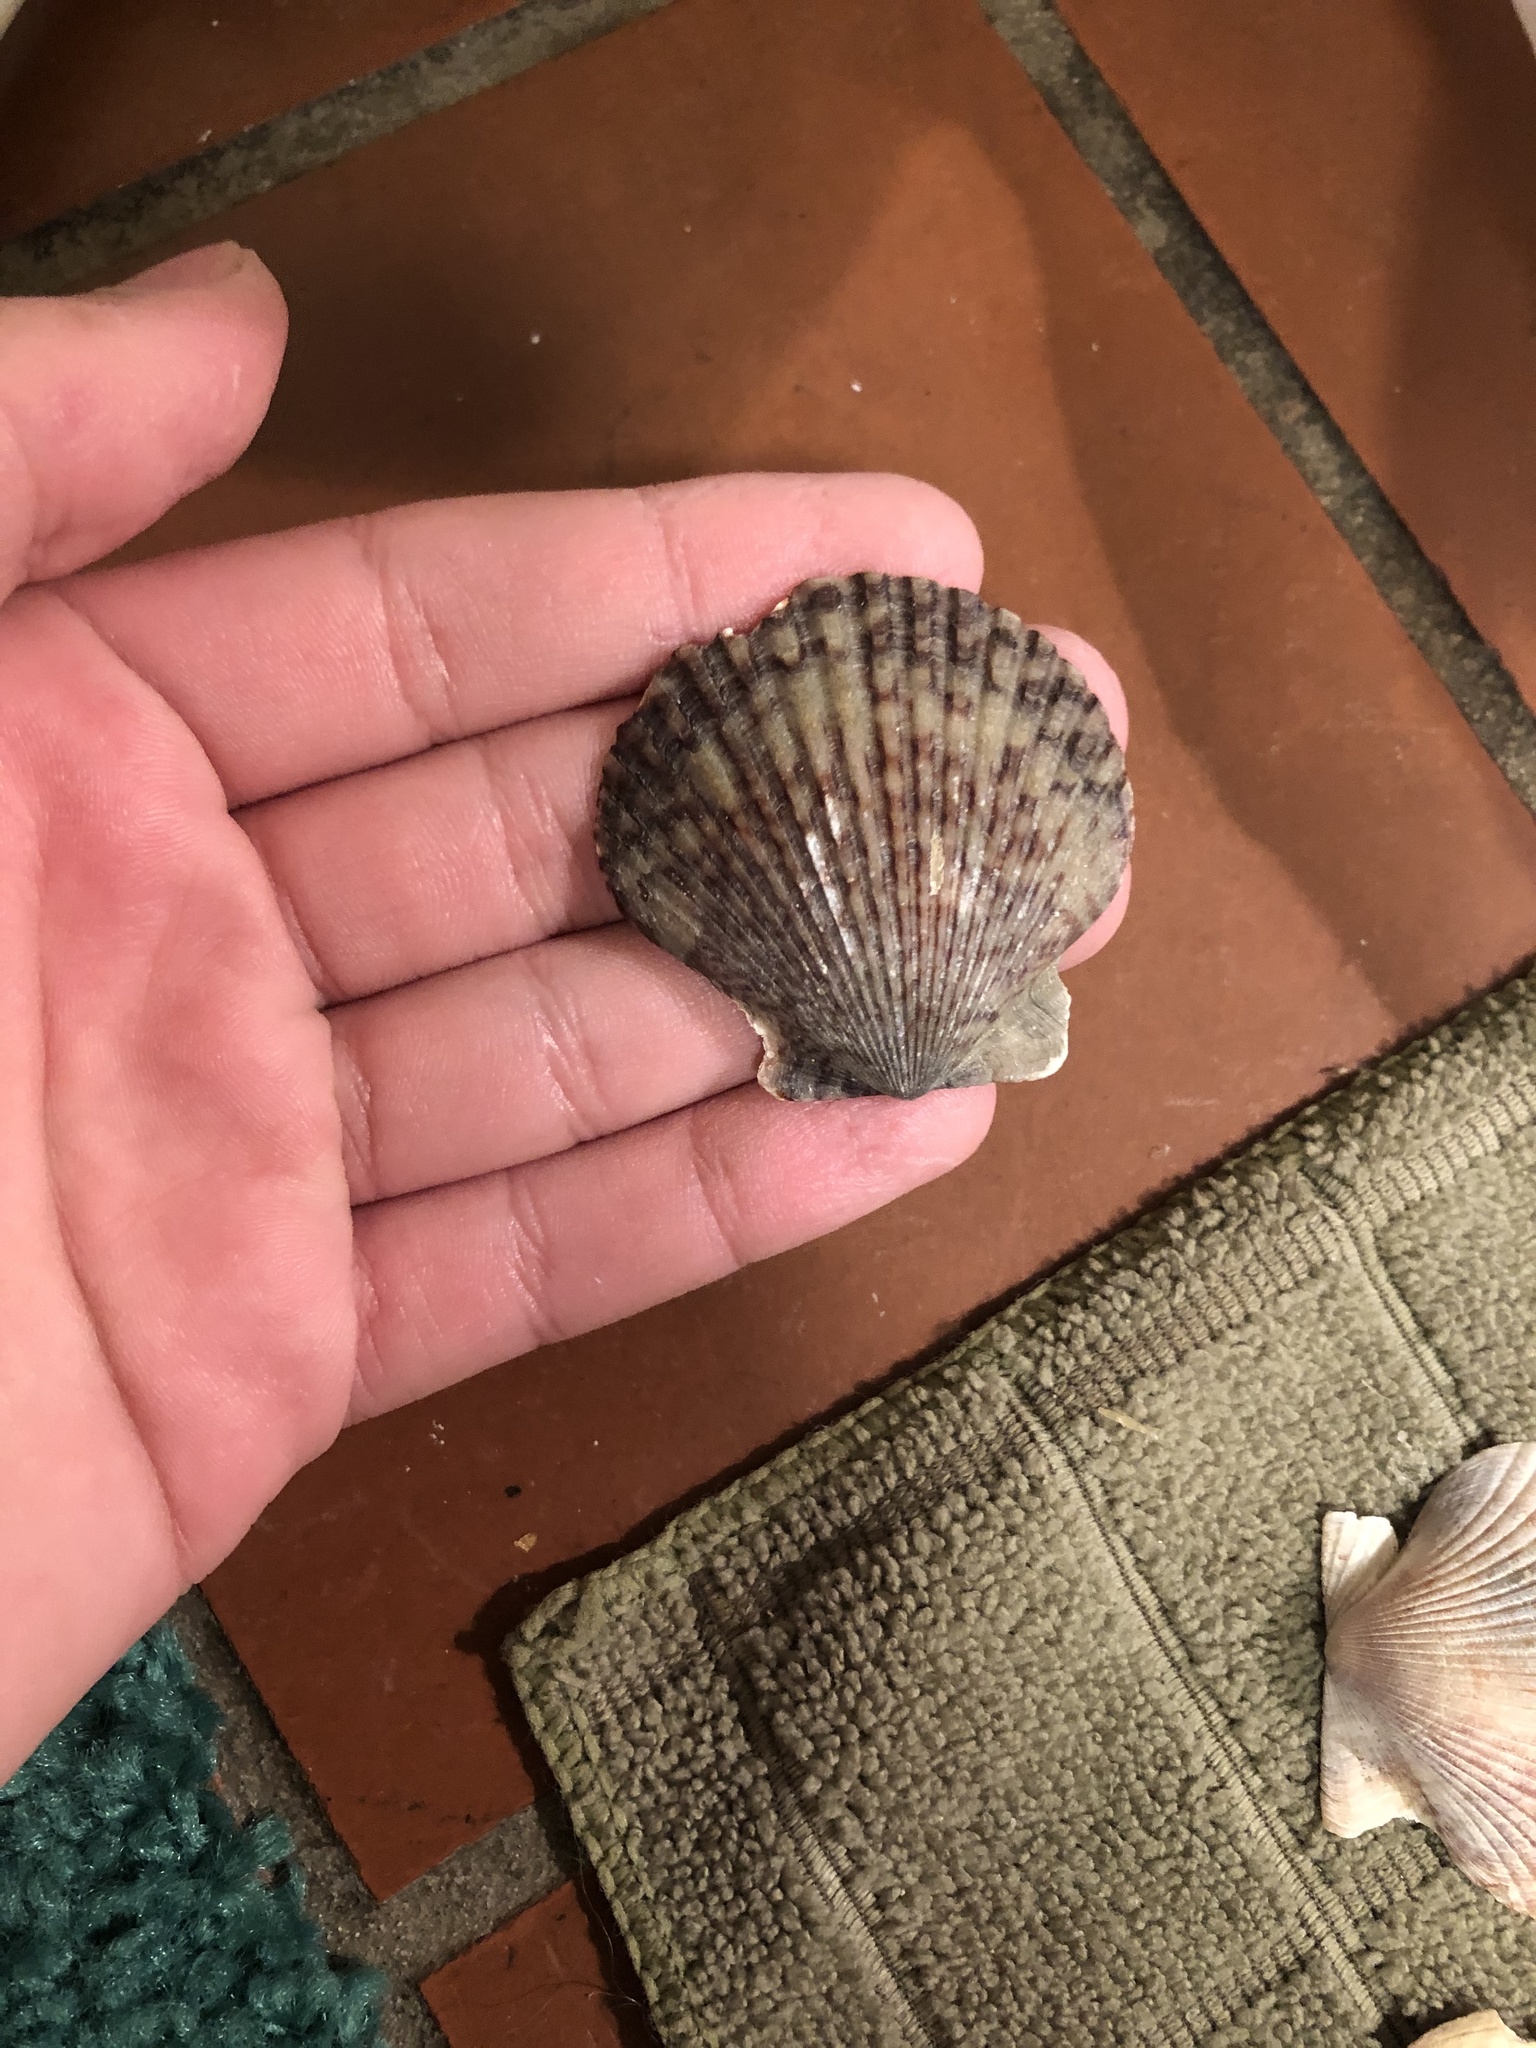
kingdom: Animalia
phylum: Mollusca
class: Bivalvia
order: Pectinida
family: Pectinidae
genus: Argopecten
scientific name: Argopecten ventricosus
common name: Catarina scallop
